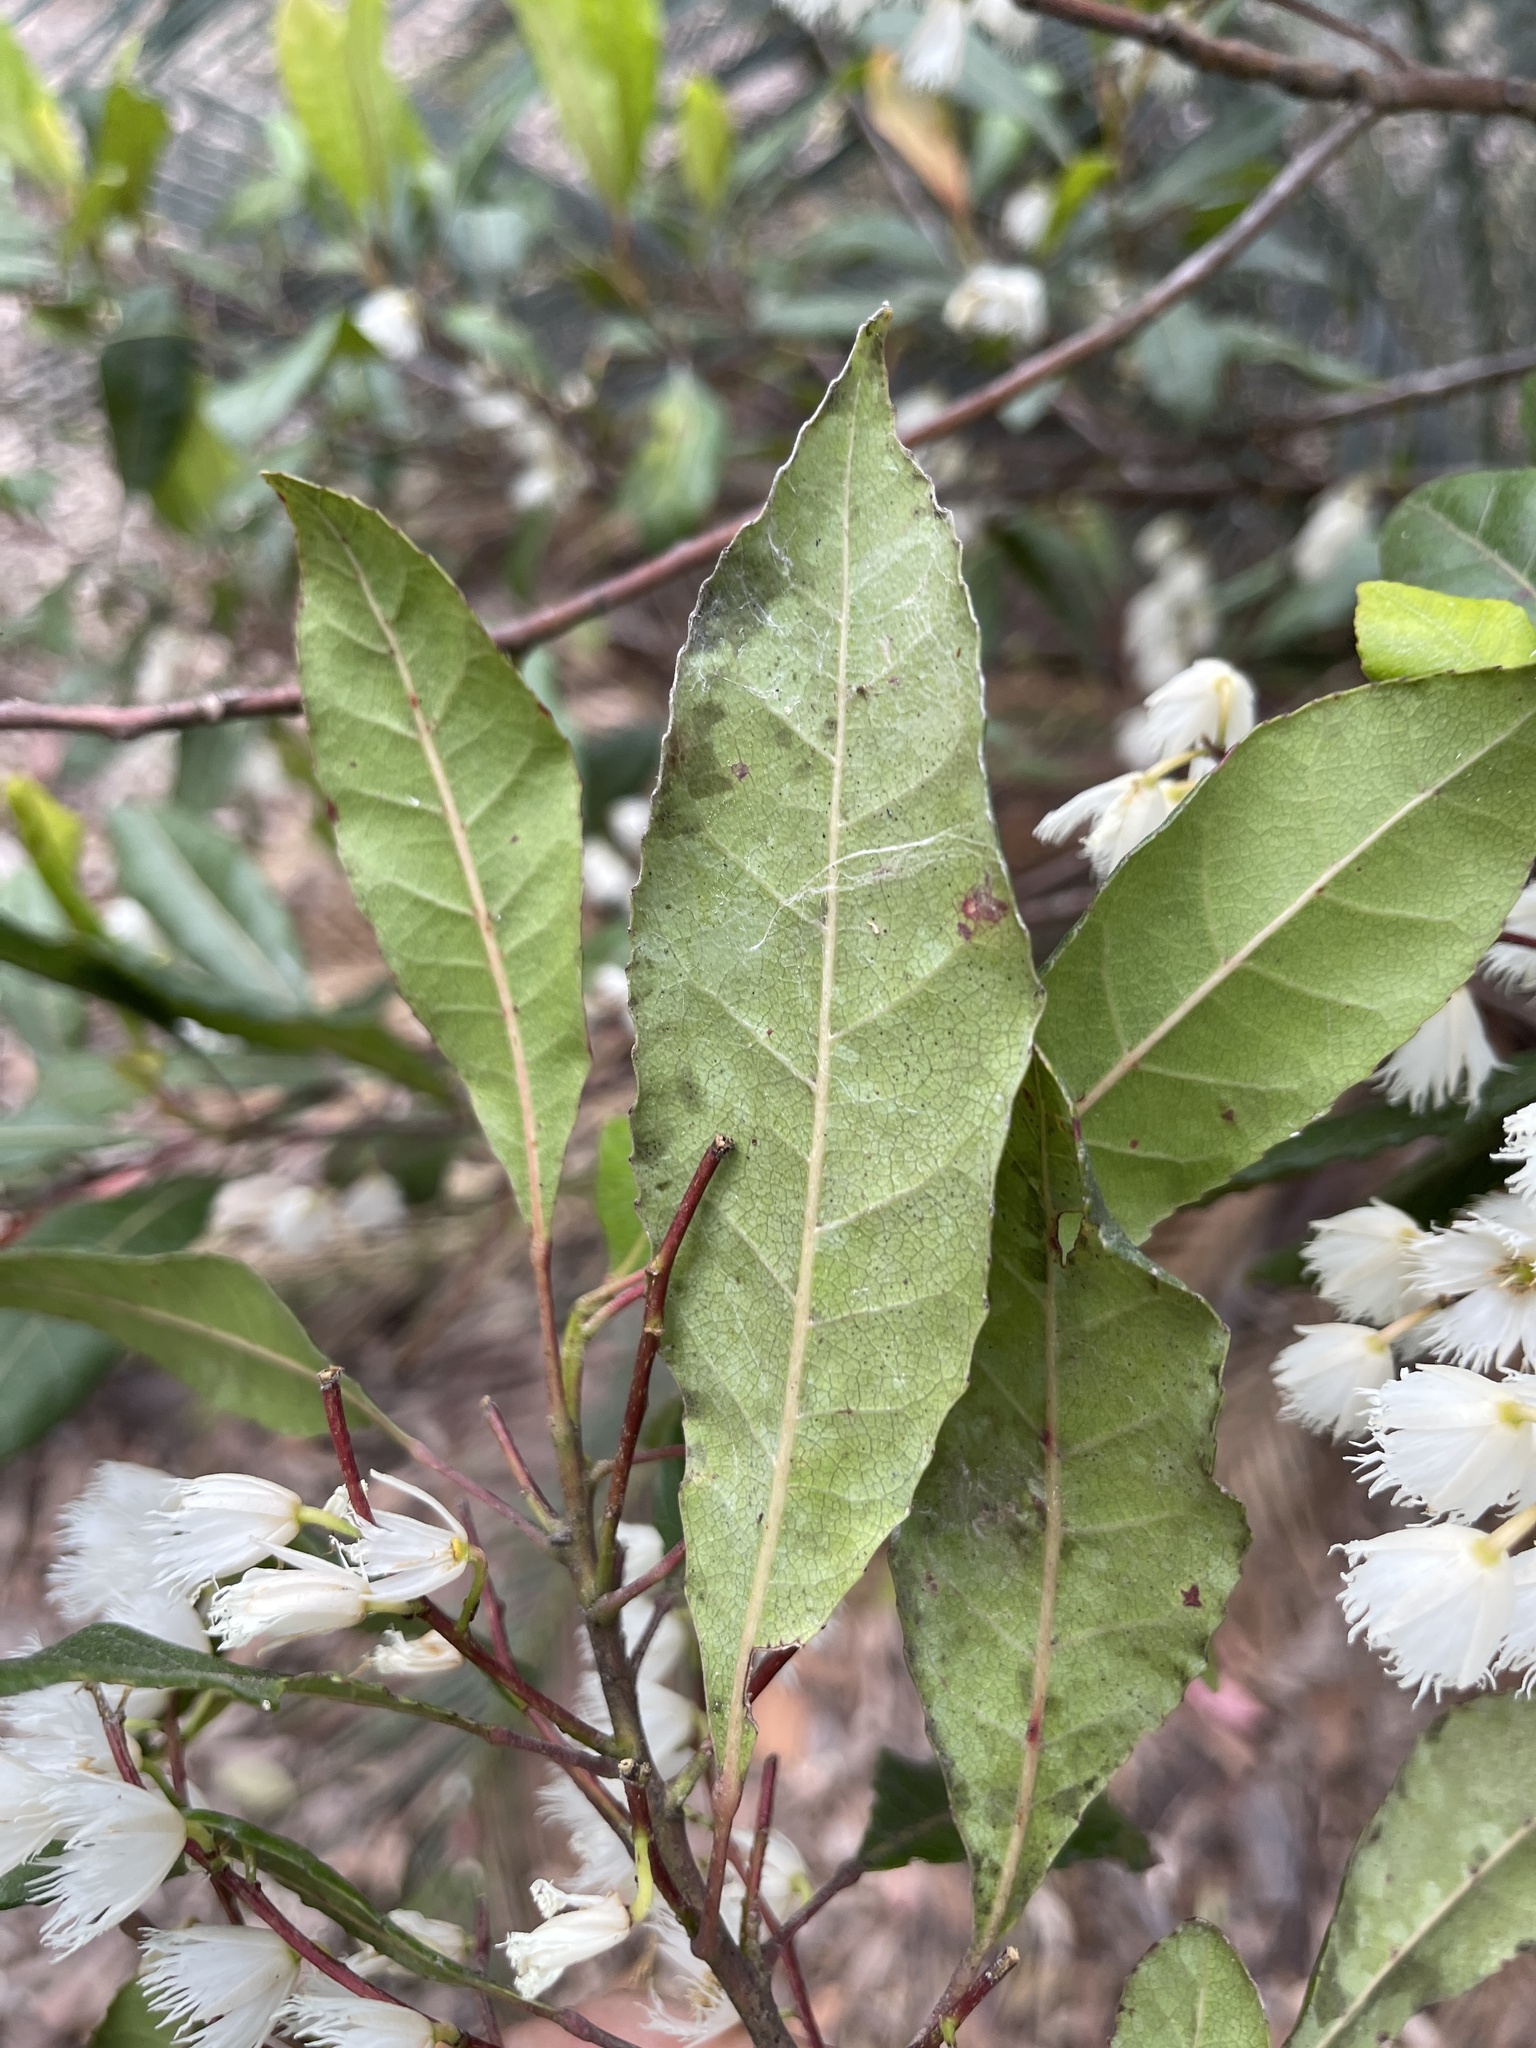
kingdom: Plantae
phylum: Tracheophyta
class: Magnoliopsida
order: Oxalidales
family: Elaeocarpaceae
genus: Elaeocarpus
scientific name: Elaeocarpus reticulatus
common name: Ash quandong
